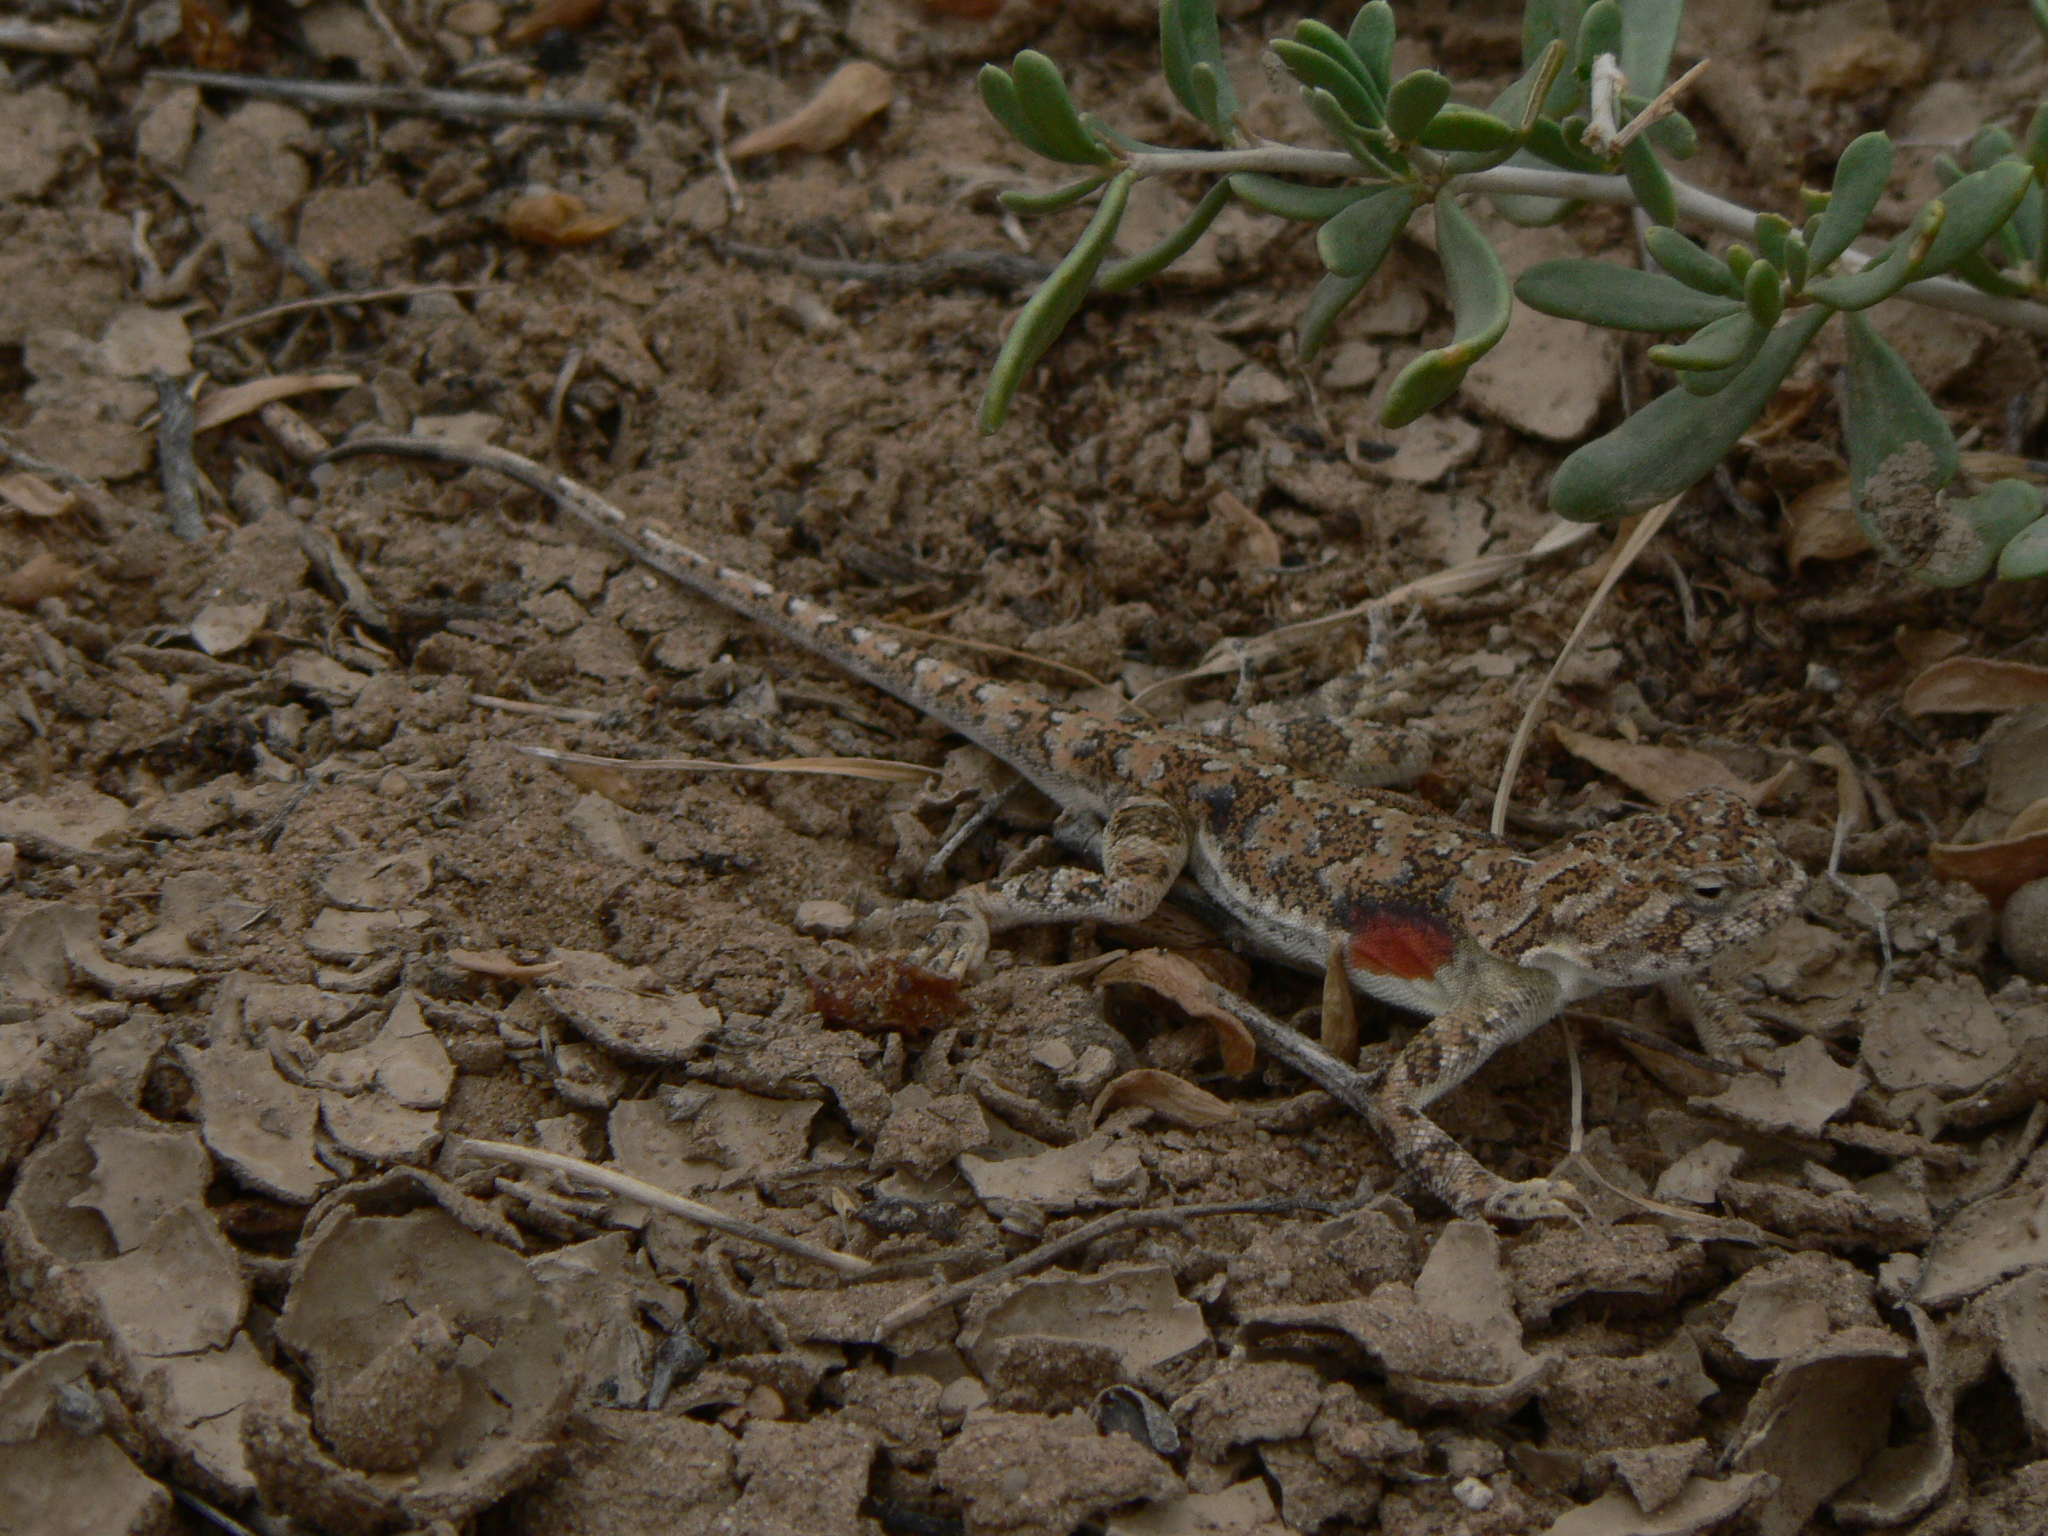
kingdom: Animalia
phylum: Chordata
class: Squamata
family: Agamidae
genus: Phrynocephalus
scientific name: Phrynocephalus versicolor
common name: Tuvan toad-headed agama
